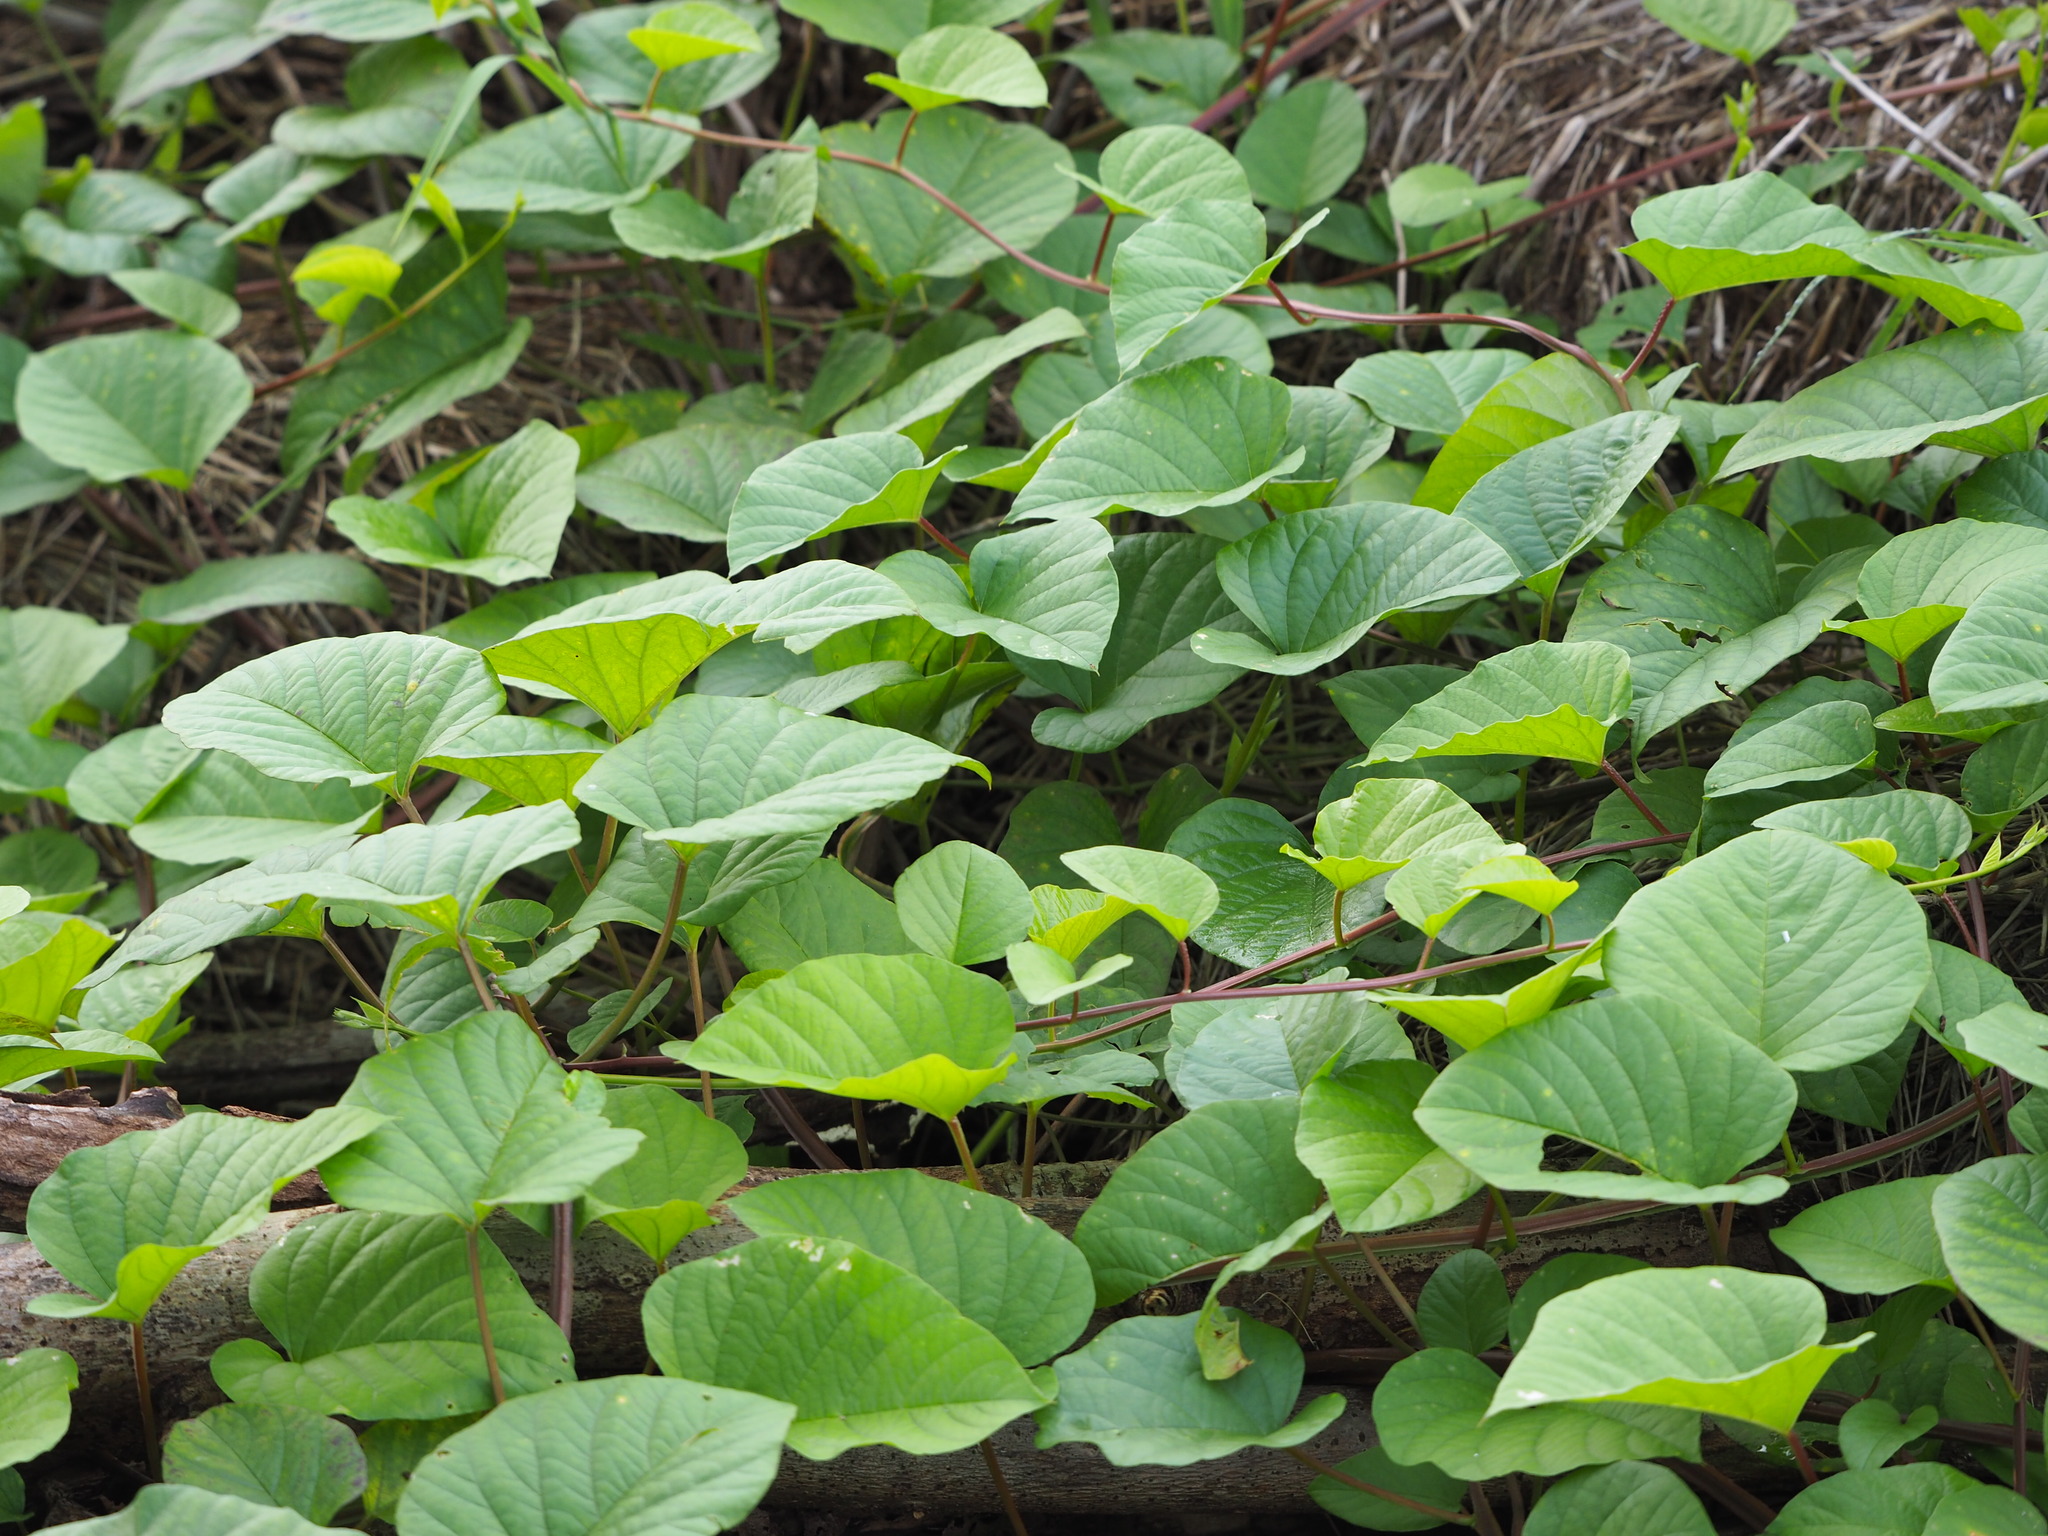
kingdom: Plantae
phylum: Tracheophyta
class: Magnoliopsida
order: Solanales
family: Convolvulaceae
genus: Operculina
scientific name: Operculina turpethum
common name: Transparent wood-rose
